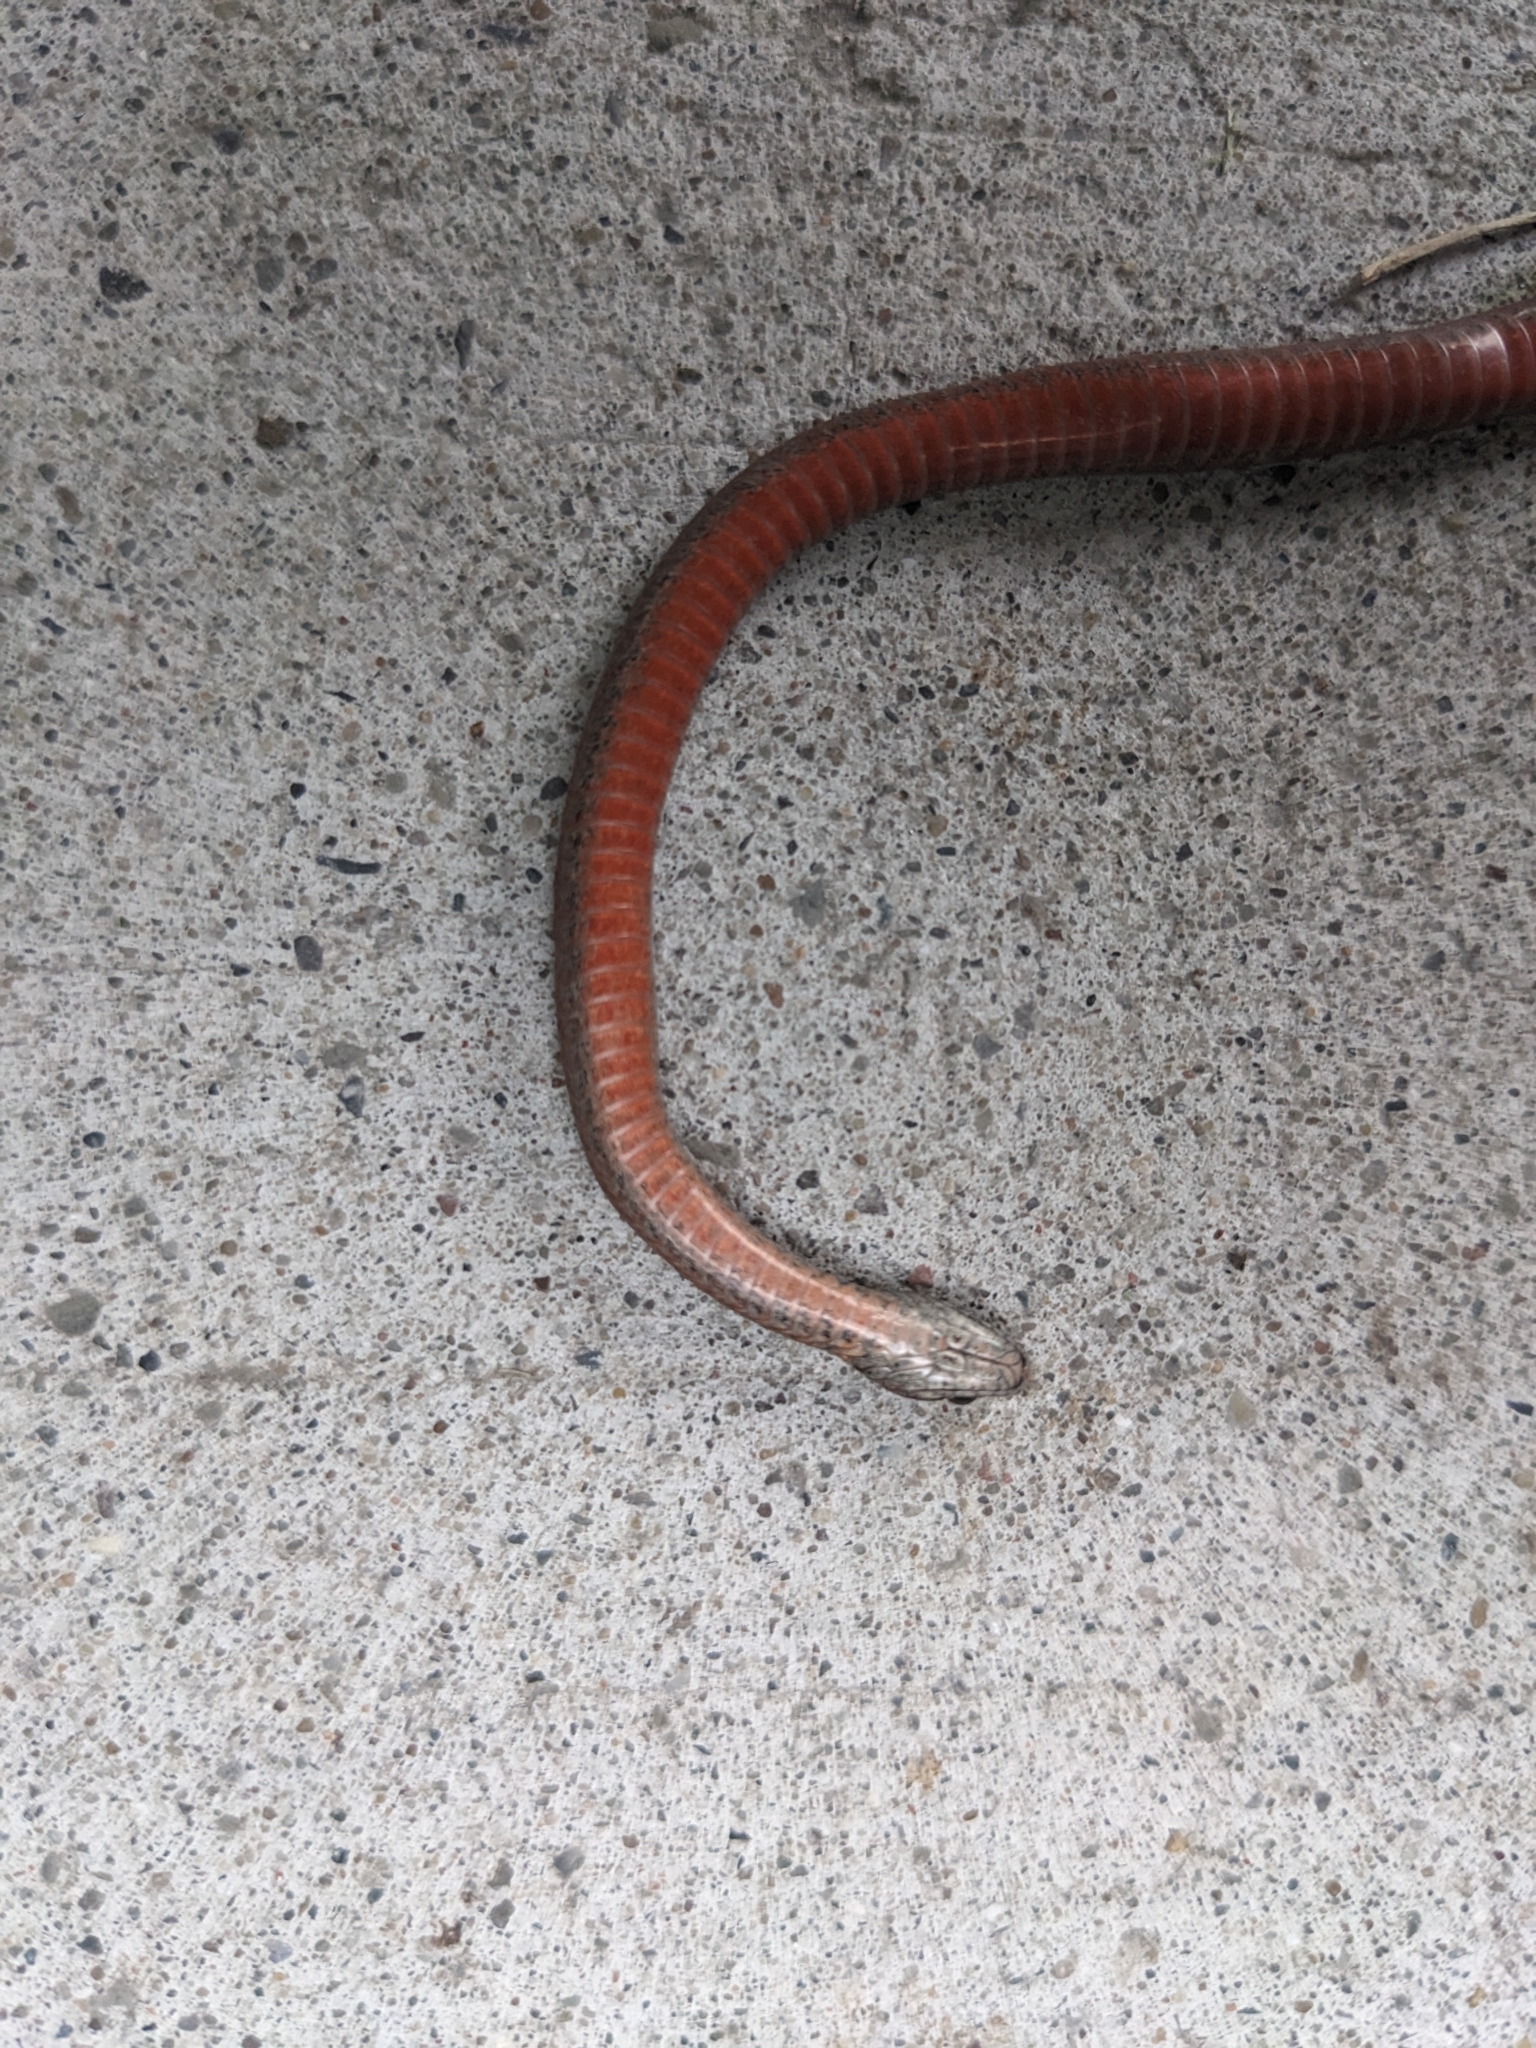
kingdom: Animalia
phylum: Chordata
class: Squamata
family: Colubridae
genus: Storeria
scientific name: Storeria occipitomaculata
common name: Redbelly snake
